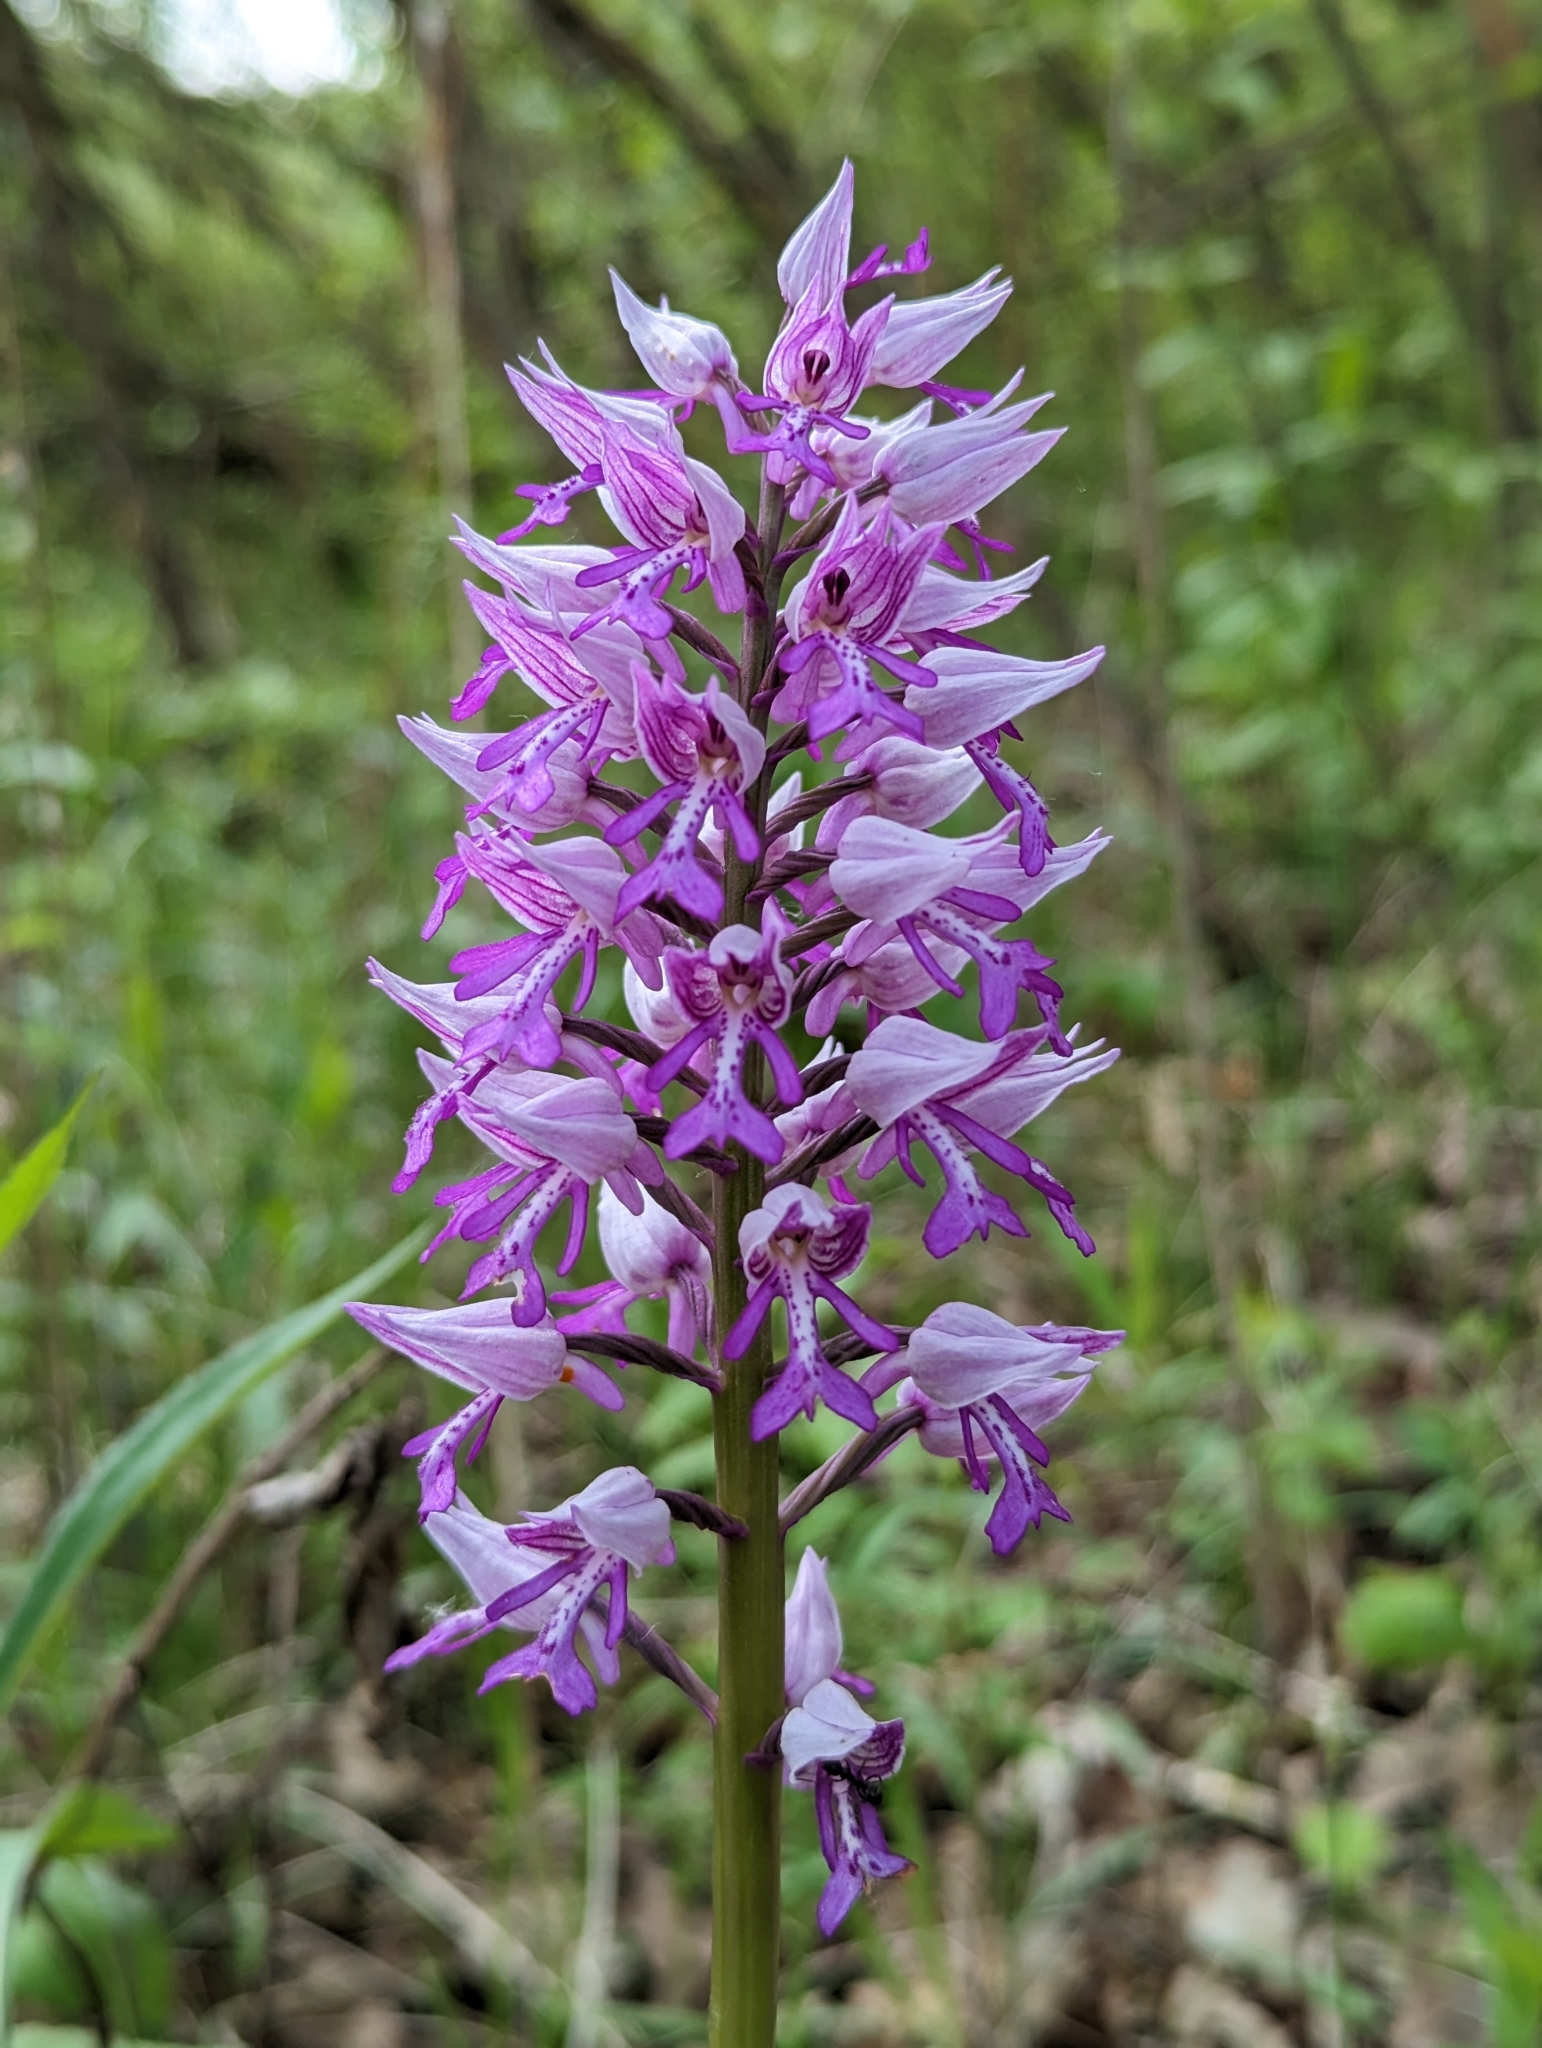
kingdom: Plantae
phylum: Tracheophyta
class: Liliopsida
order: Asparagales
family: Orchidaceae
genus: Orchis
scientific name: Orchis militaris
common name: Military orchid
